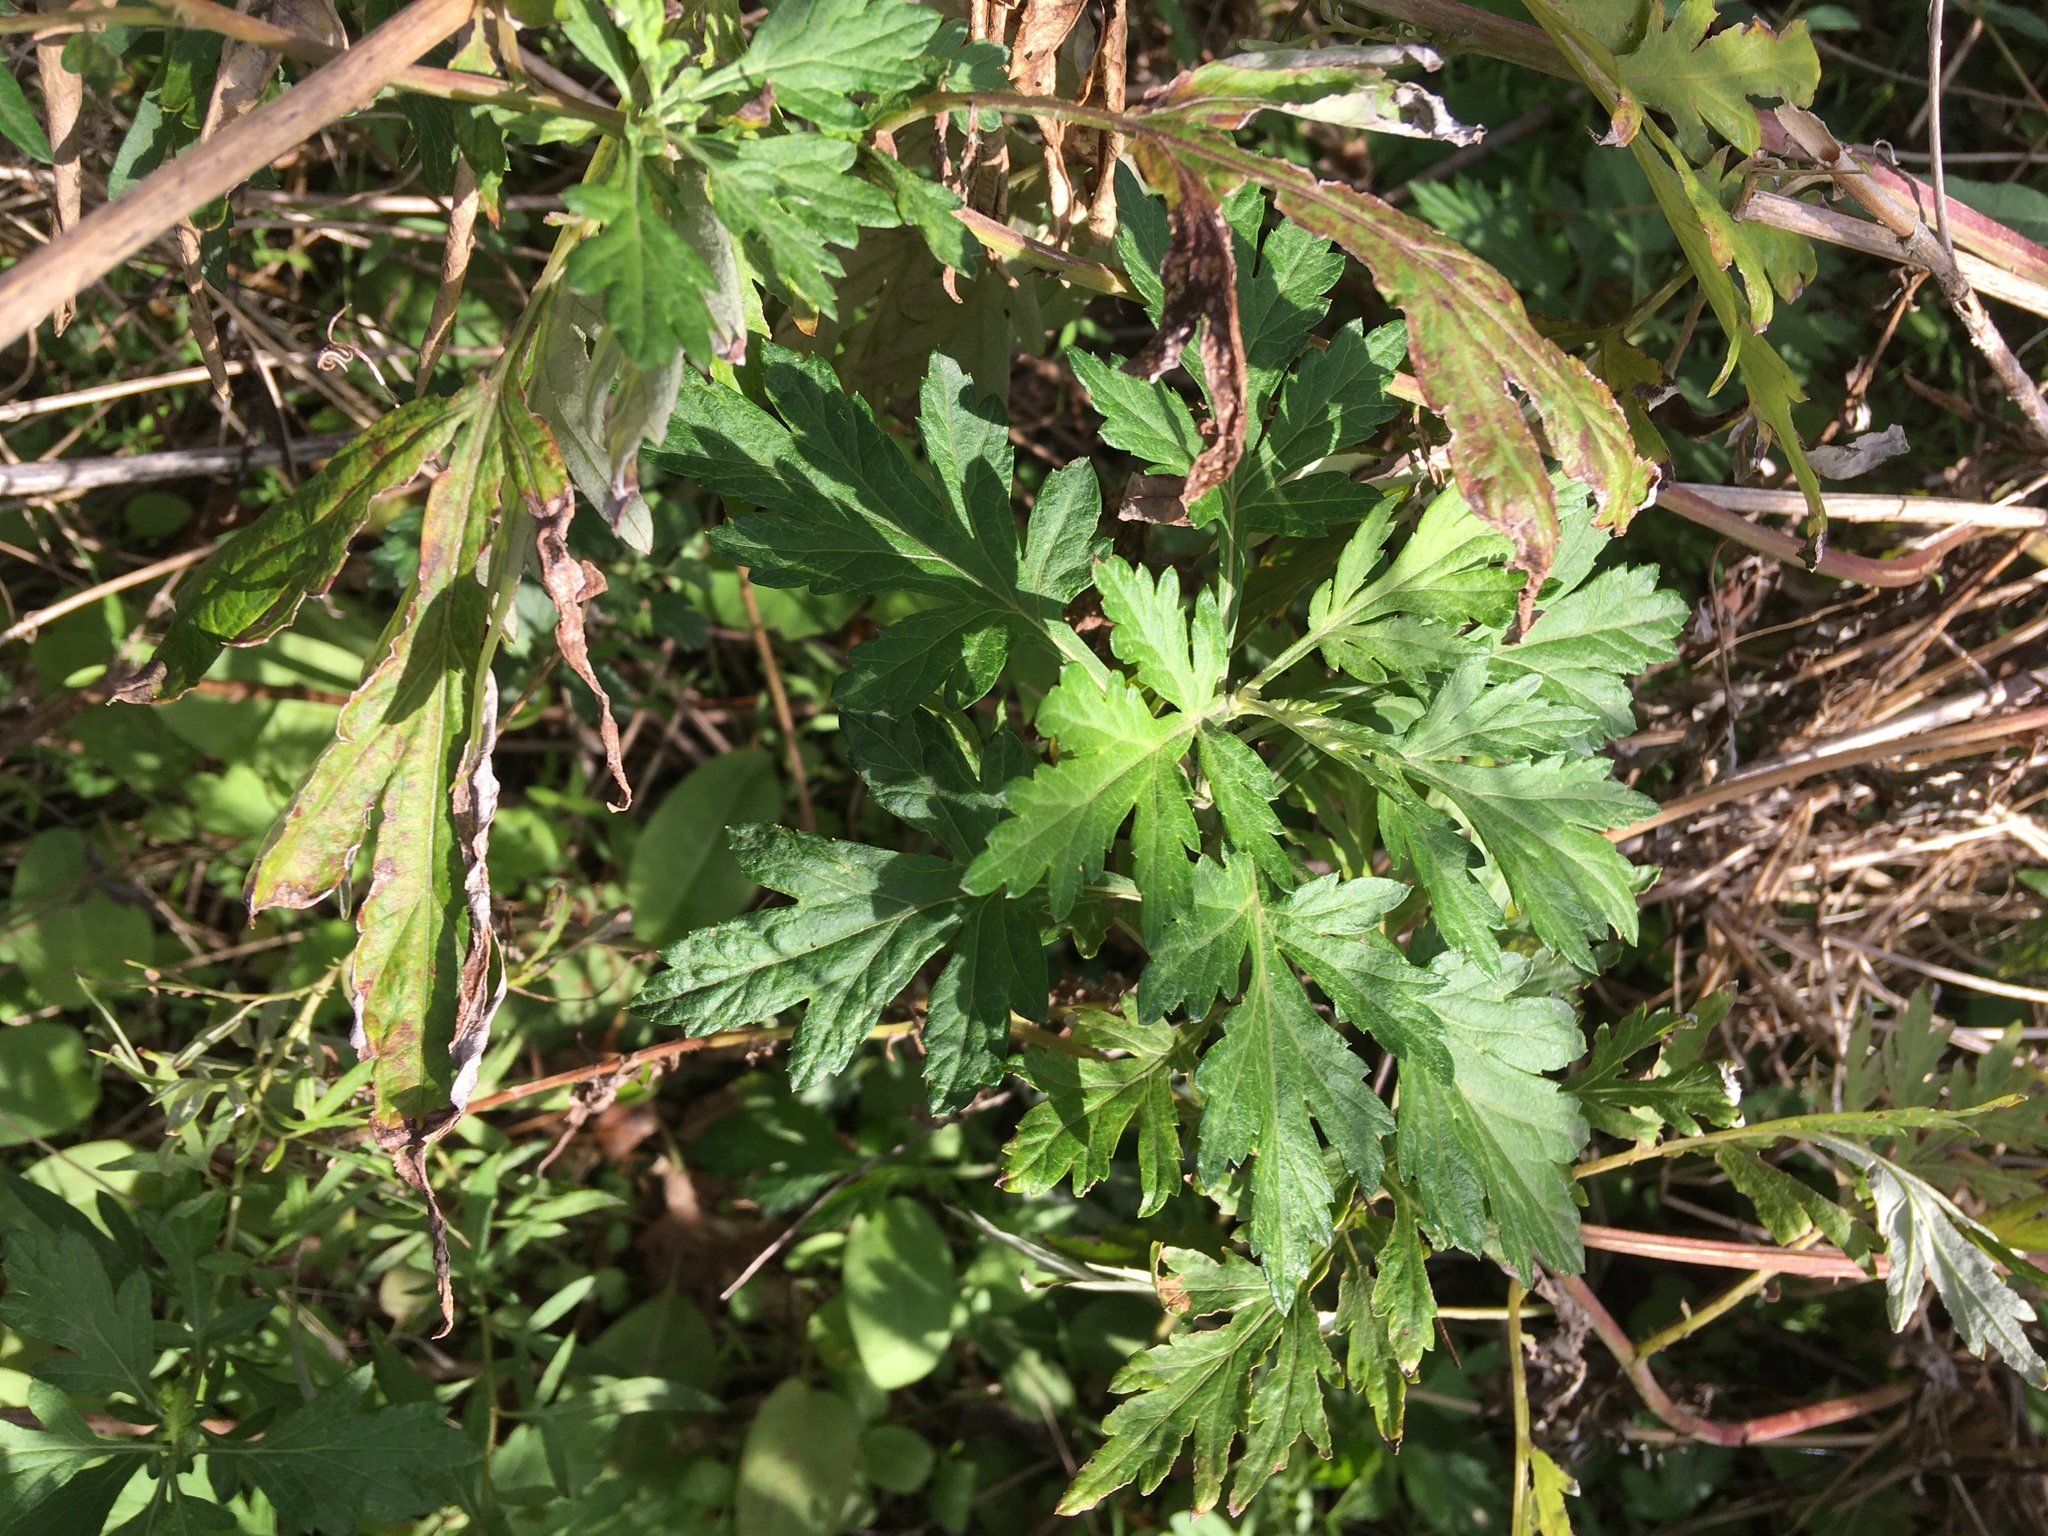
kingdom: Plantae
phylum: Tracheophyta
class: Magnoliopsida
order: Asterales
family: Asteraceae
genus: Artemisia
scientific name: Artemisia vulgaris
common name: Mugwort
